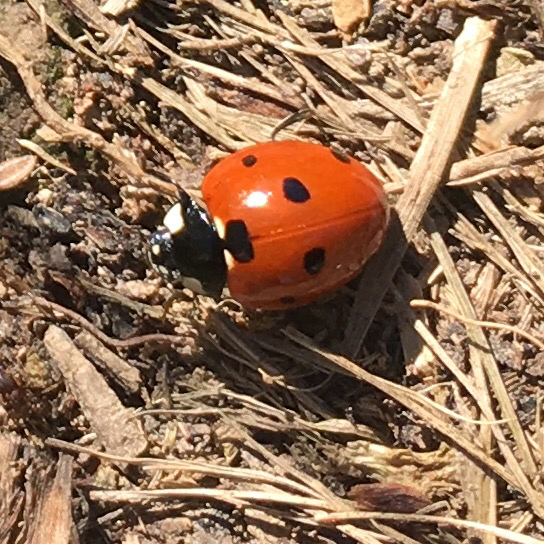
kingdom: Animalia
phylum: Arthropoda
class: Insecta
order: Coleoptera
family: Coccinellidae
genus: Coccinella
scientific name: Coccinella septempunctata
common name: Sevenspotted lady beetle
